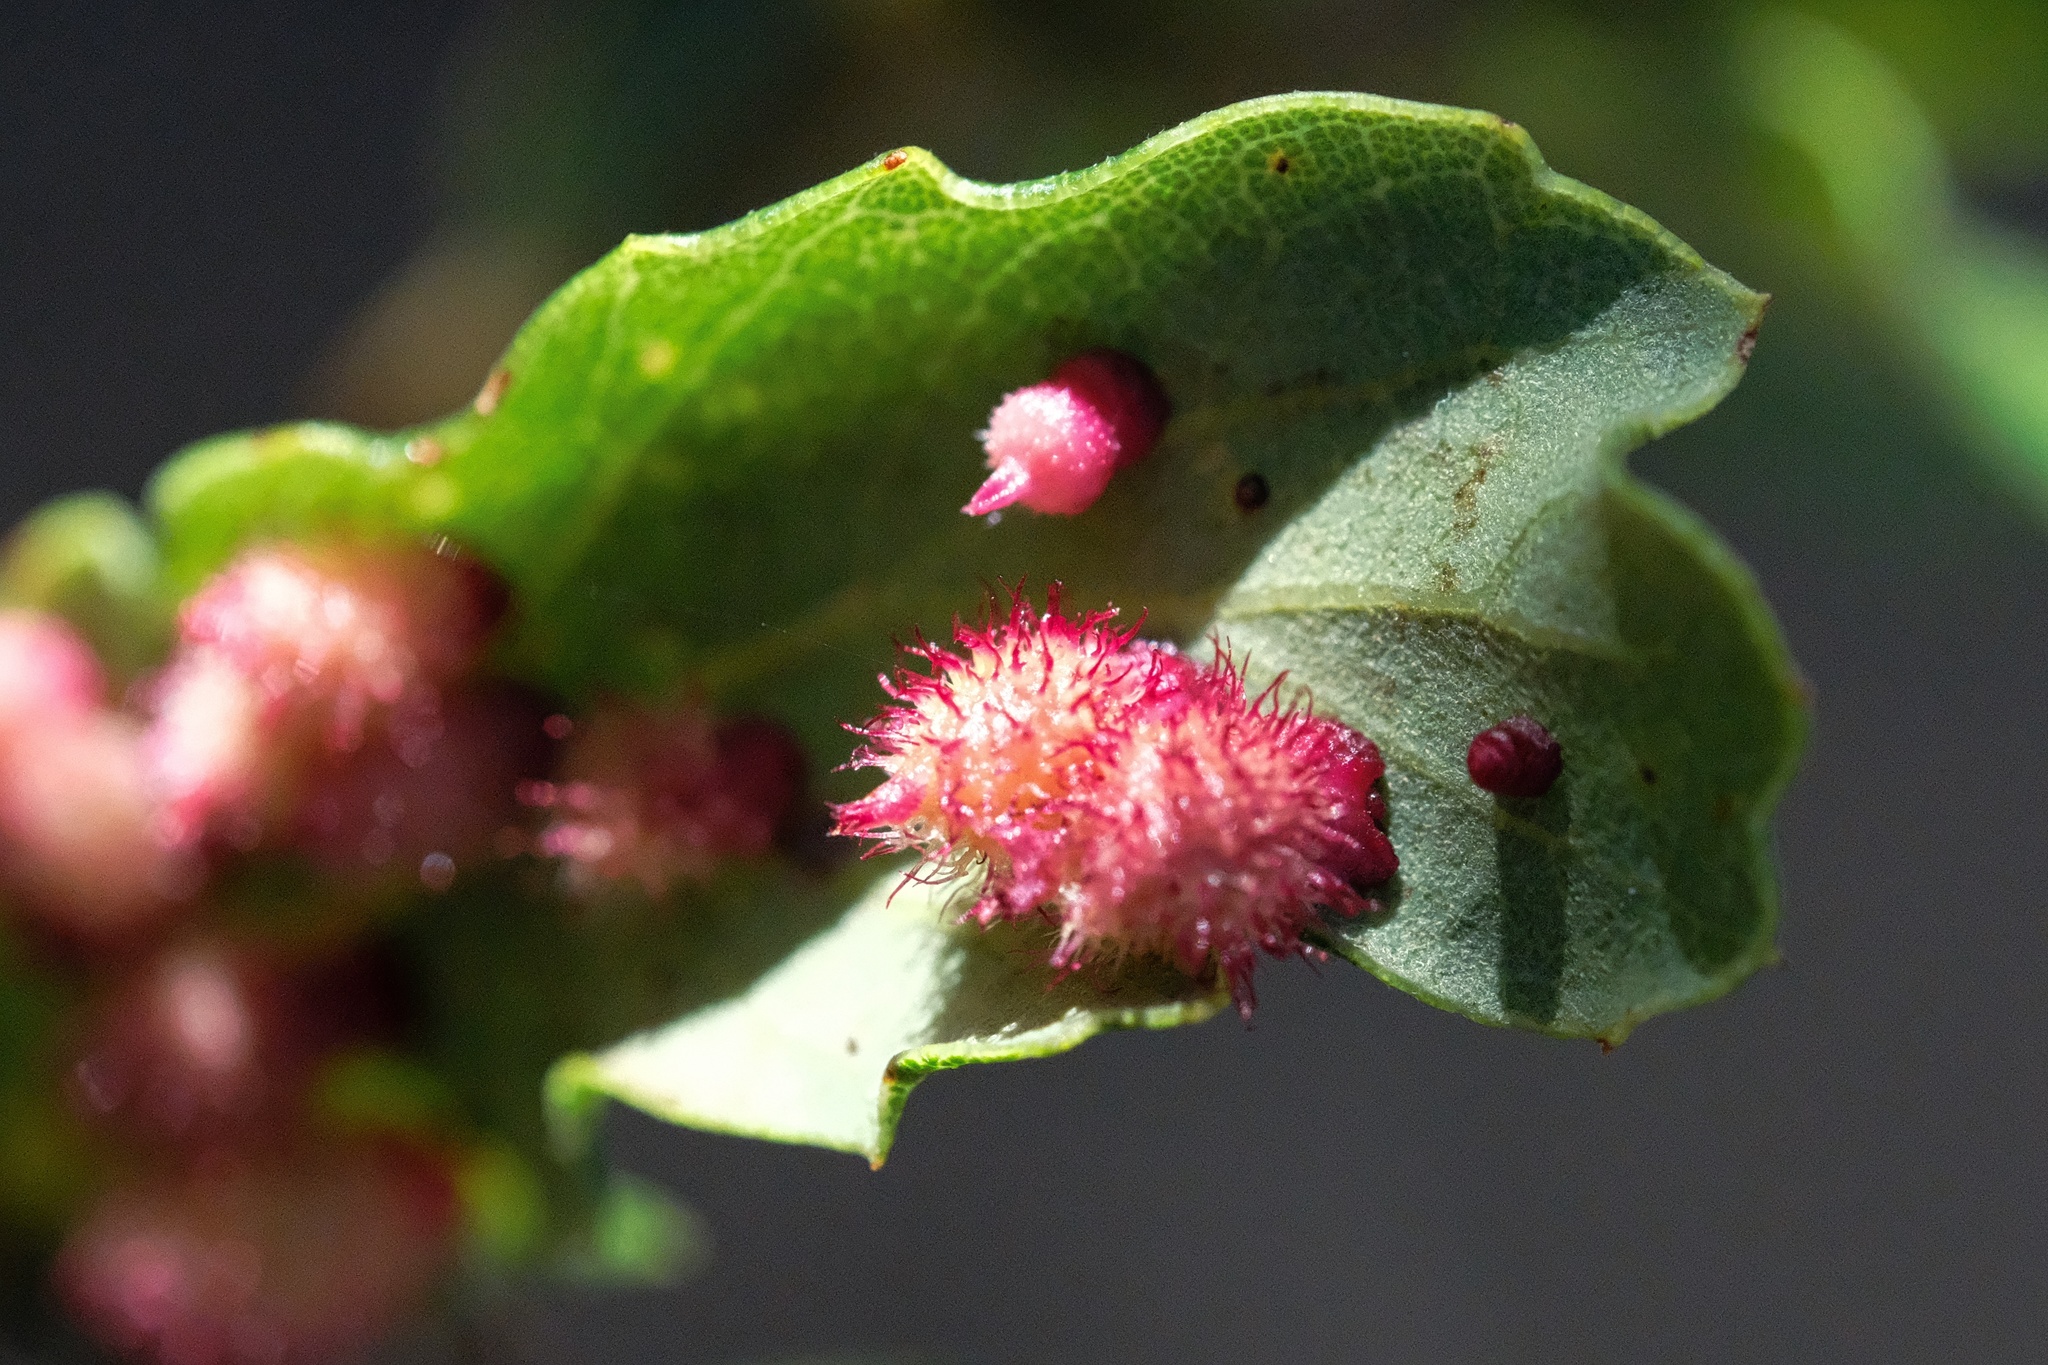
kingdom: Animalia
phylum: Arthropoda
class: Insecta
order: Hymenoptera
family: Cynipidae
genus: Andricus
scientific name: Andricus
